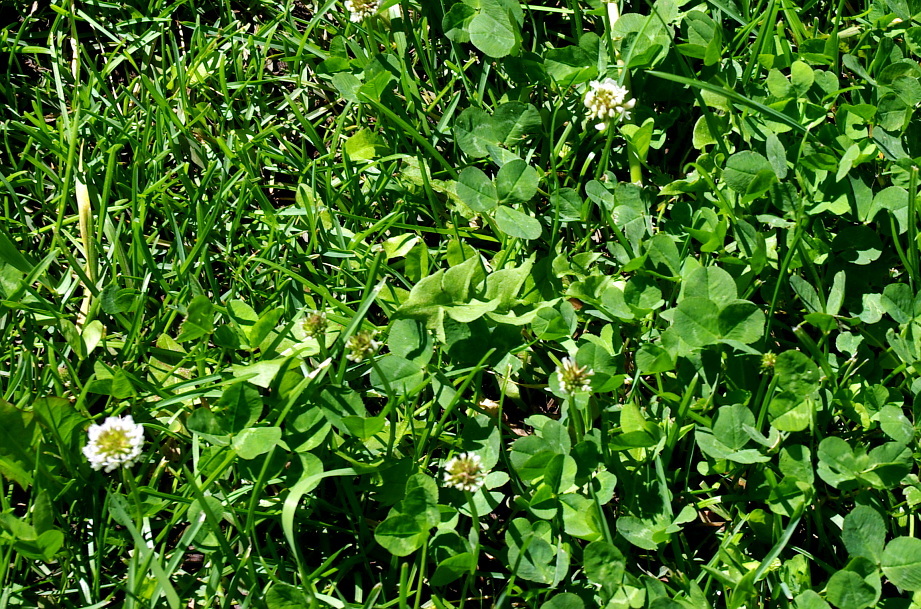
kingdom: Plantae
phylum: Tracheophyta
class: Magnoliopsida
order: Fabales
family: Fabaceae
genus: Trifolium
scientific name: Trifolium repens
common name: White clover
